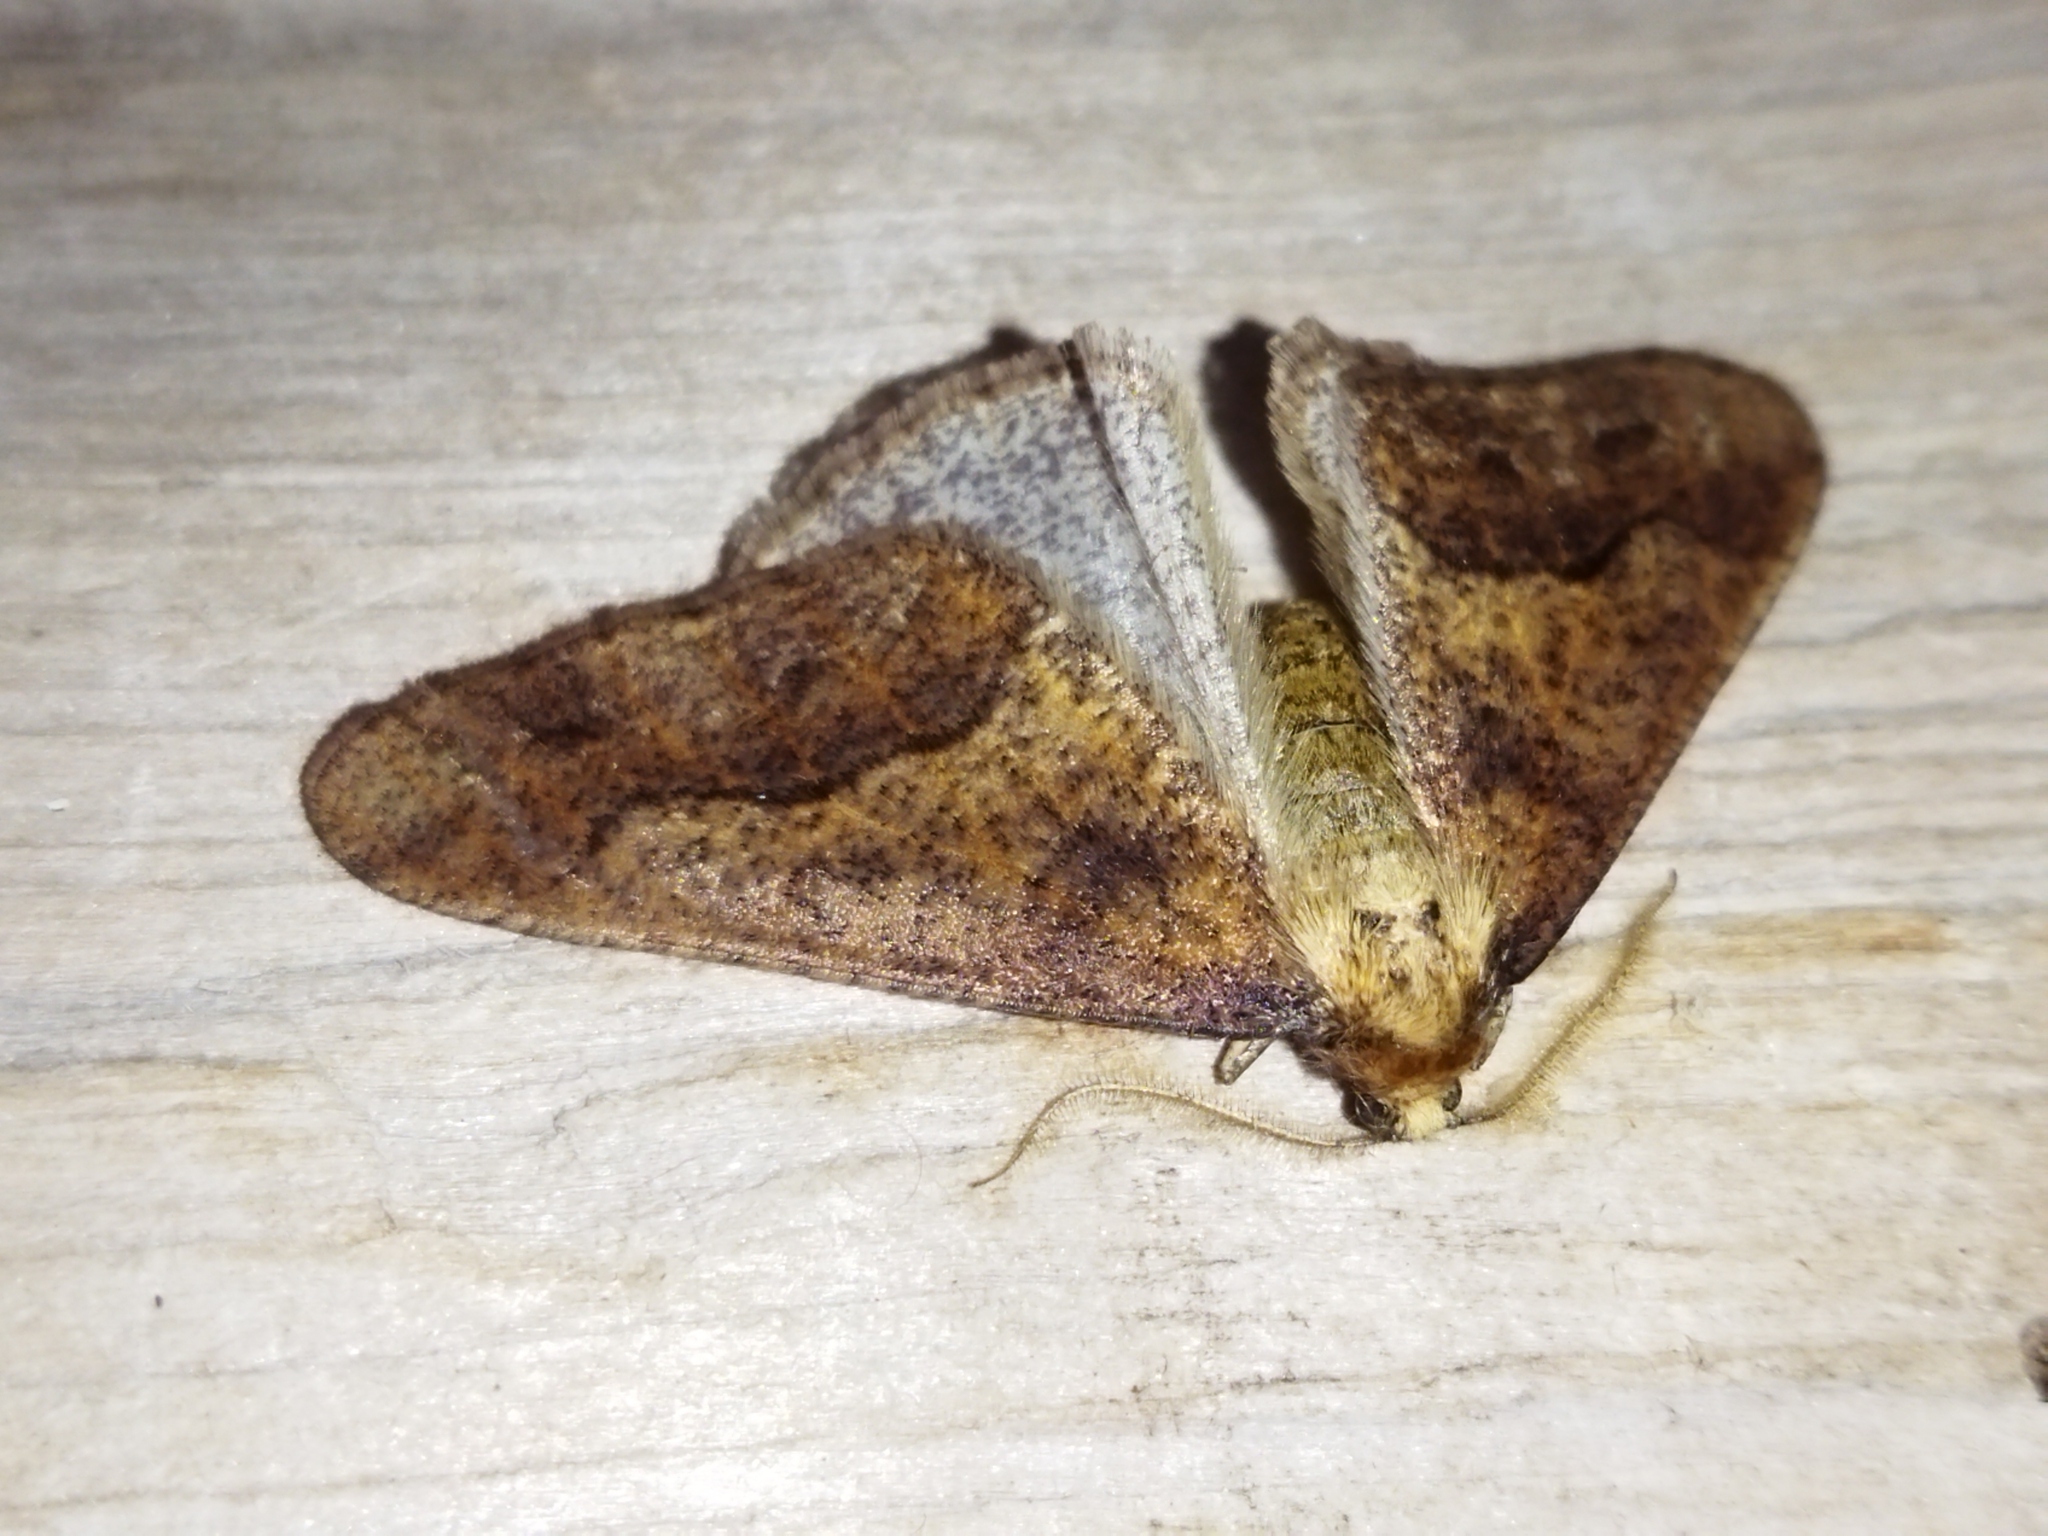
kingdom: Animalia
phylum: Arthropoda
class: Insecta
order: Lepidoptera
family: Geometridae
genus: Erannis
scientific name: Erannis defoliaria
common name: Mottled umber
